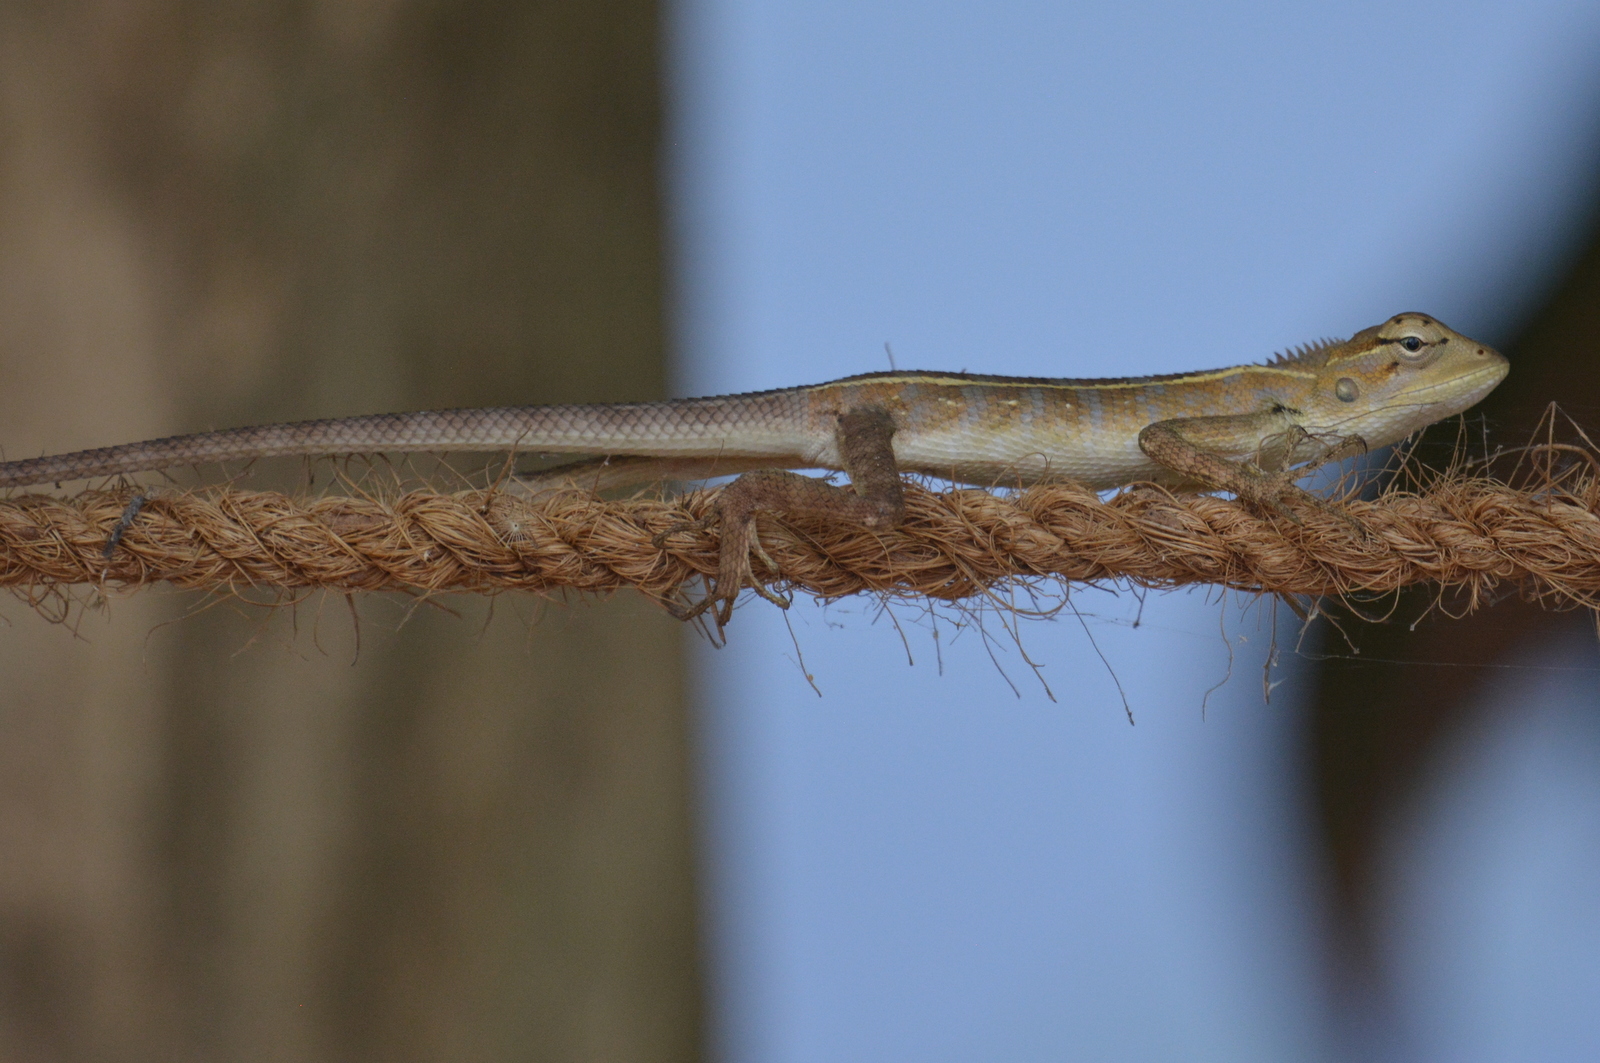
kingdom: Animalia
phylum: Chordata
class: Squamata
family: Agamidae
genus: Calotes
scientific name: Calotes versicolor
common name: Oriental garden lizard
